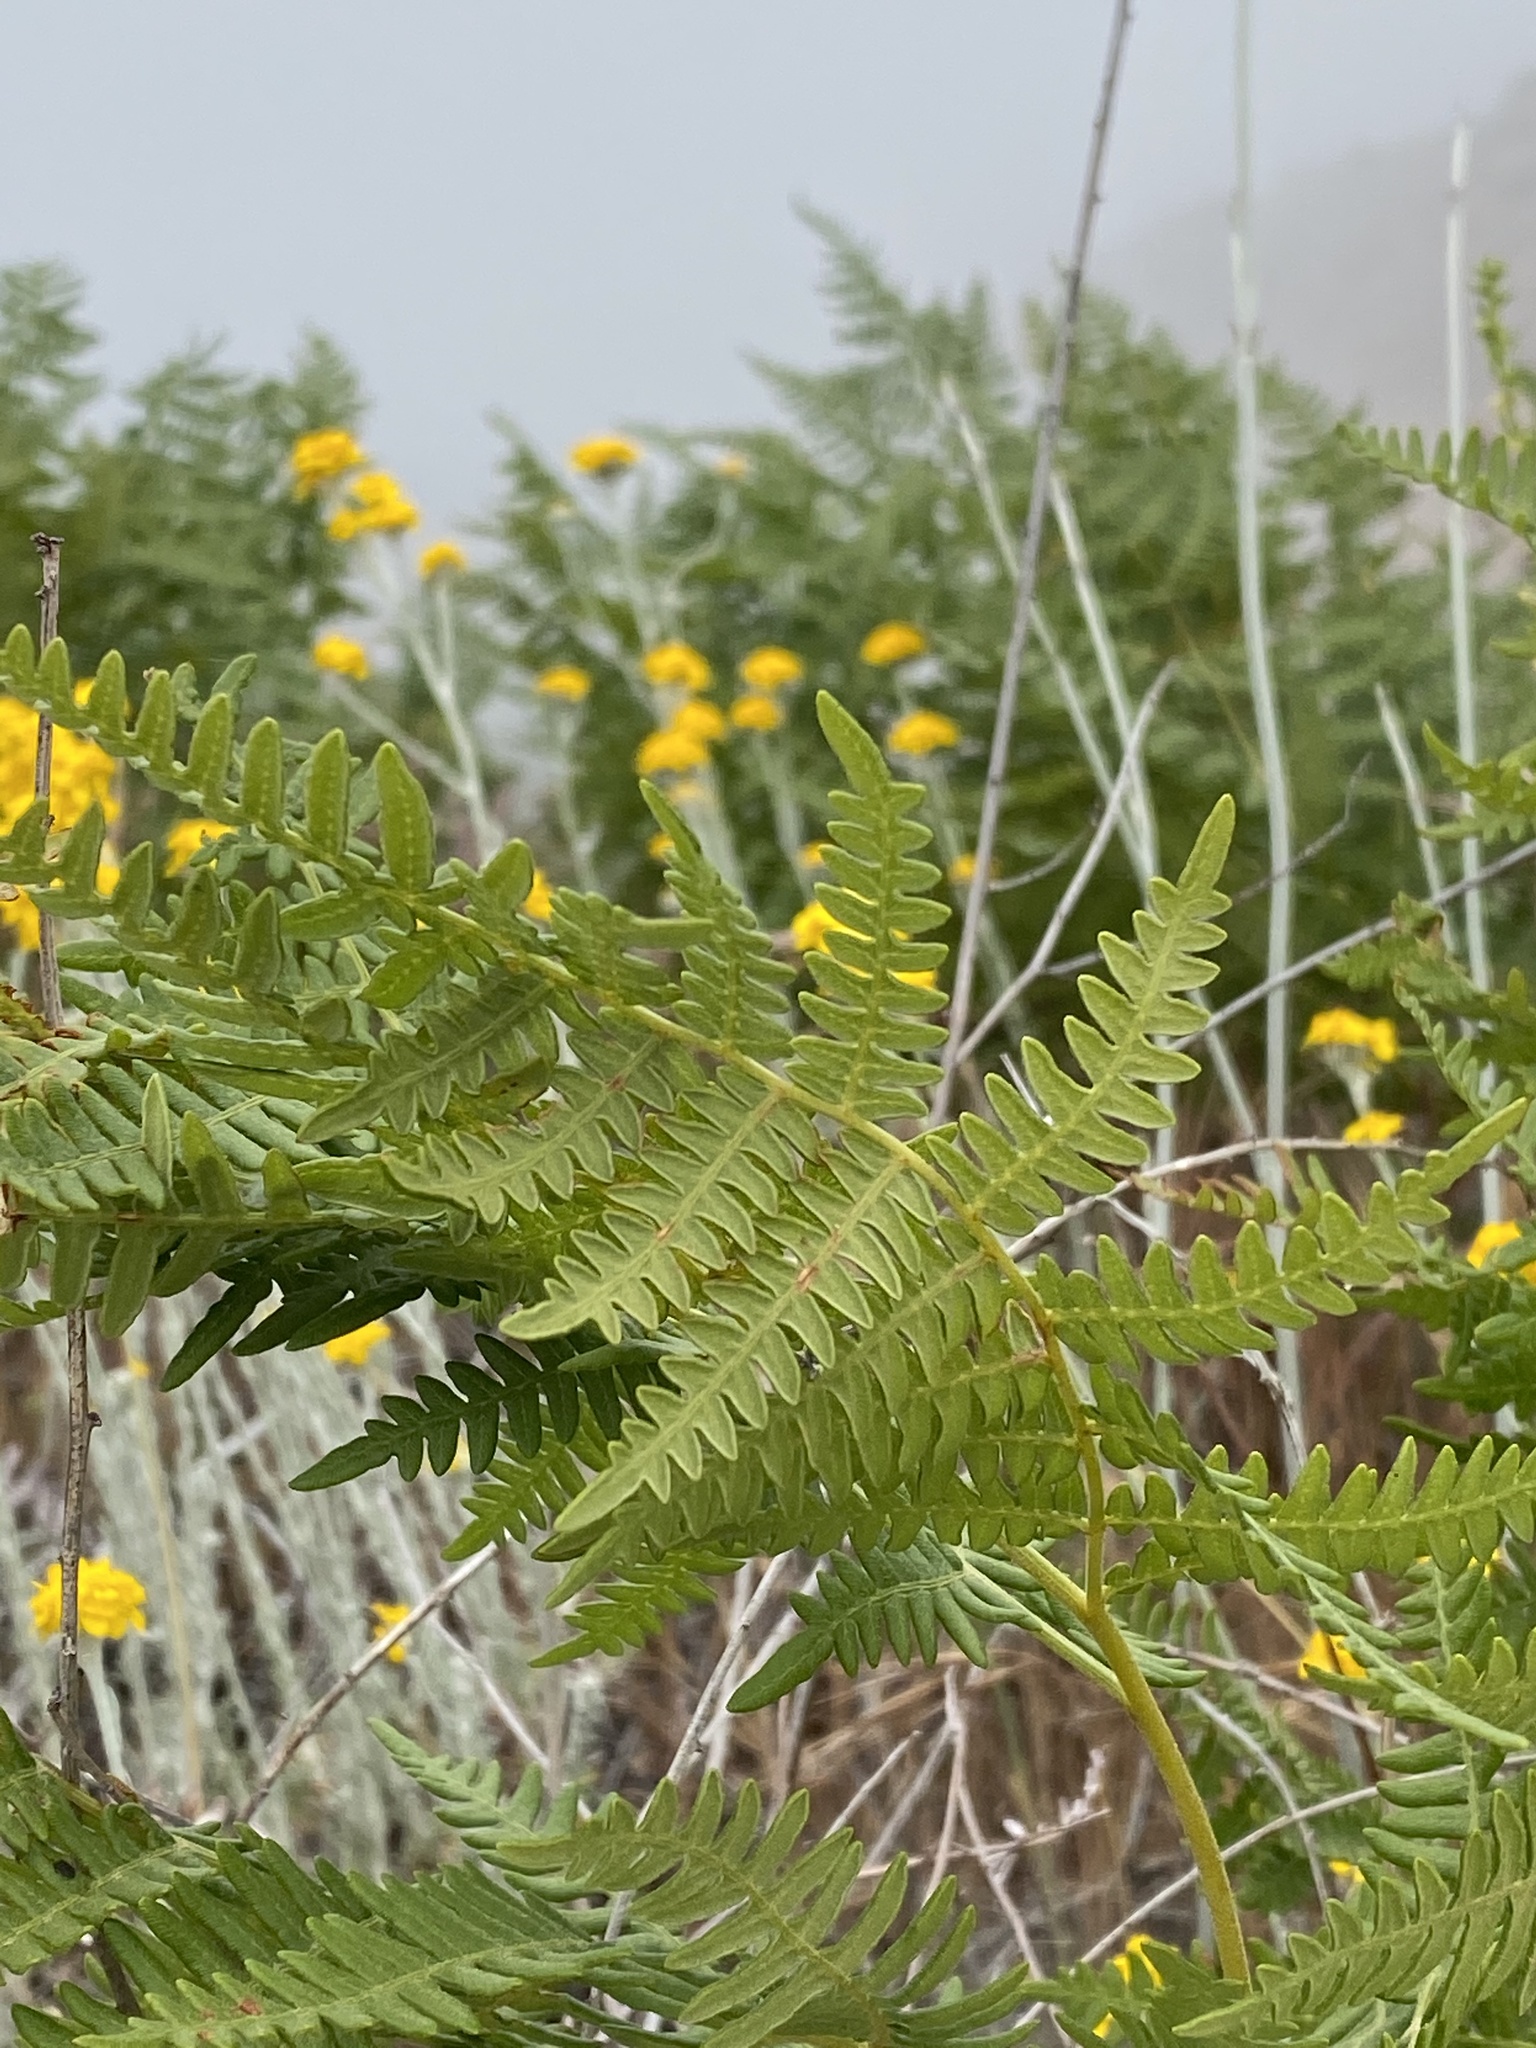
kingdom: Plantae
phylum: Tracheophyta
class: Polypodiopsida
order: Polypodiales
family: Dennstaedtiaceae
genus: Pteridium
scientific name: Pteridium aquilinum
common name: Bracken
